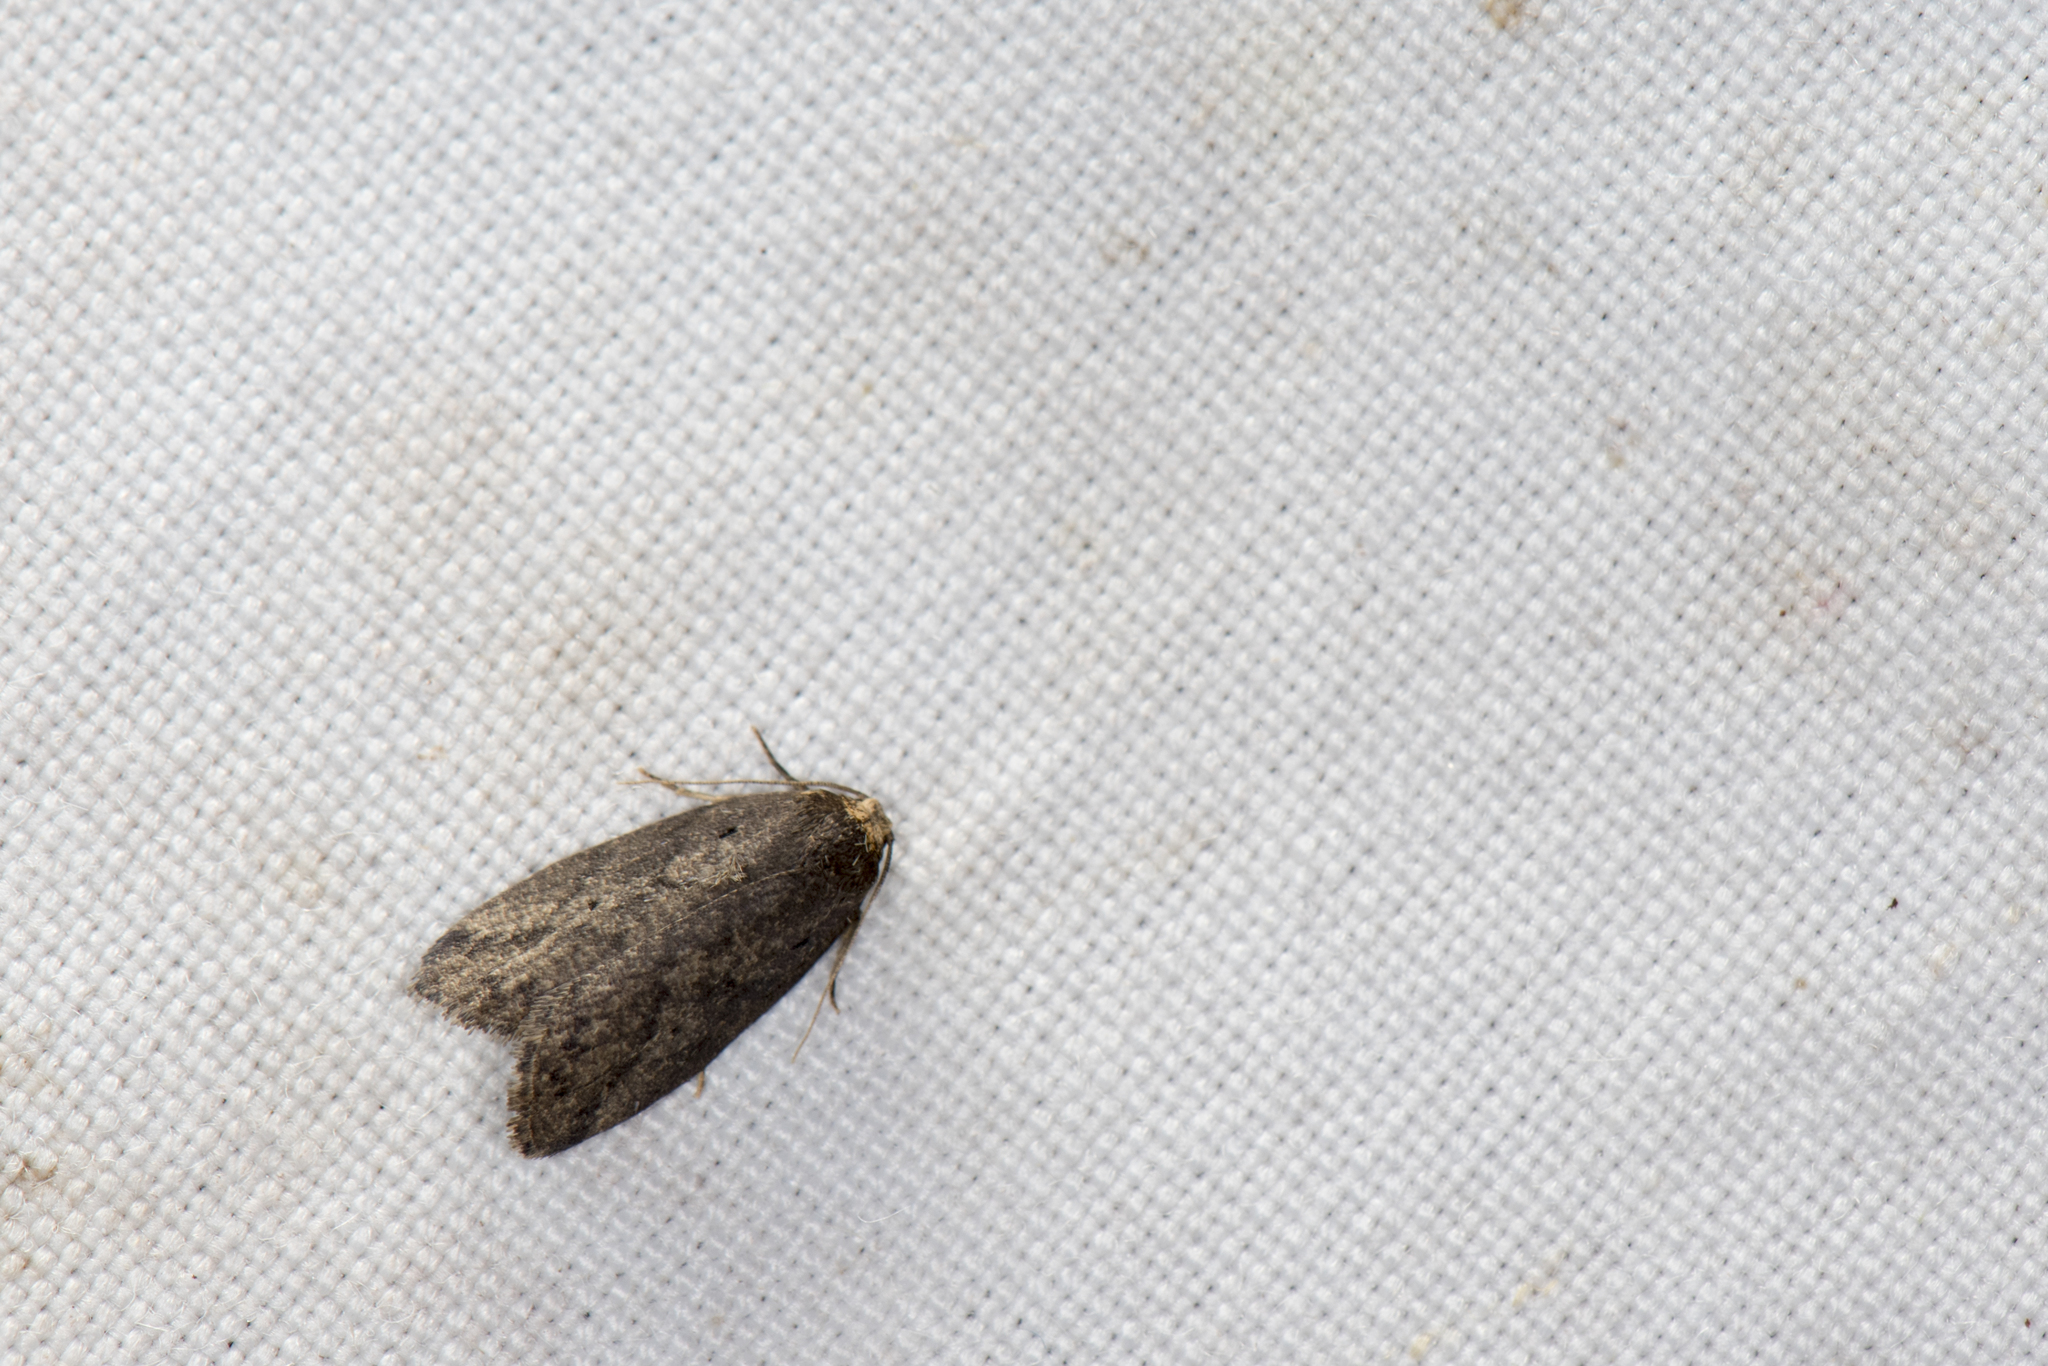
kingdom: Animalia
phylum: Arthropoda
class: Insecta
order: Lepidoptera
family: Erebidae
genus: Eugoa
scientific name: Eugoa brunnea
